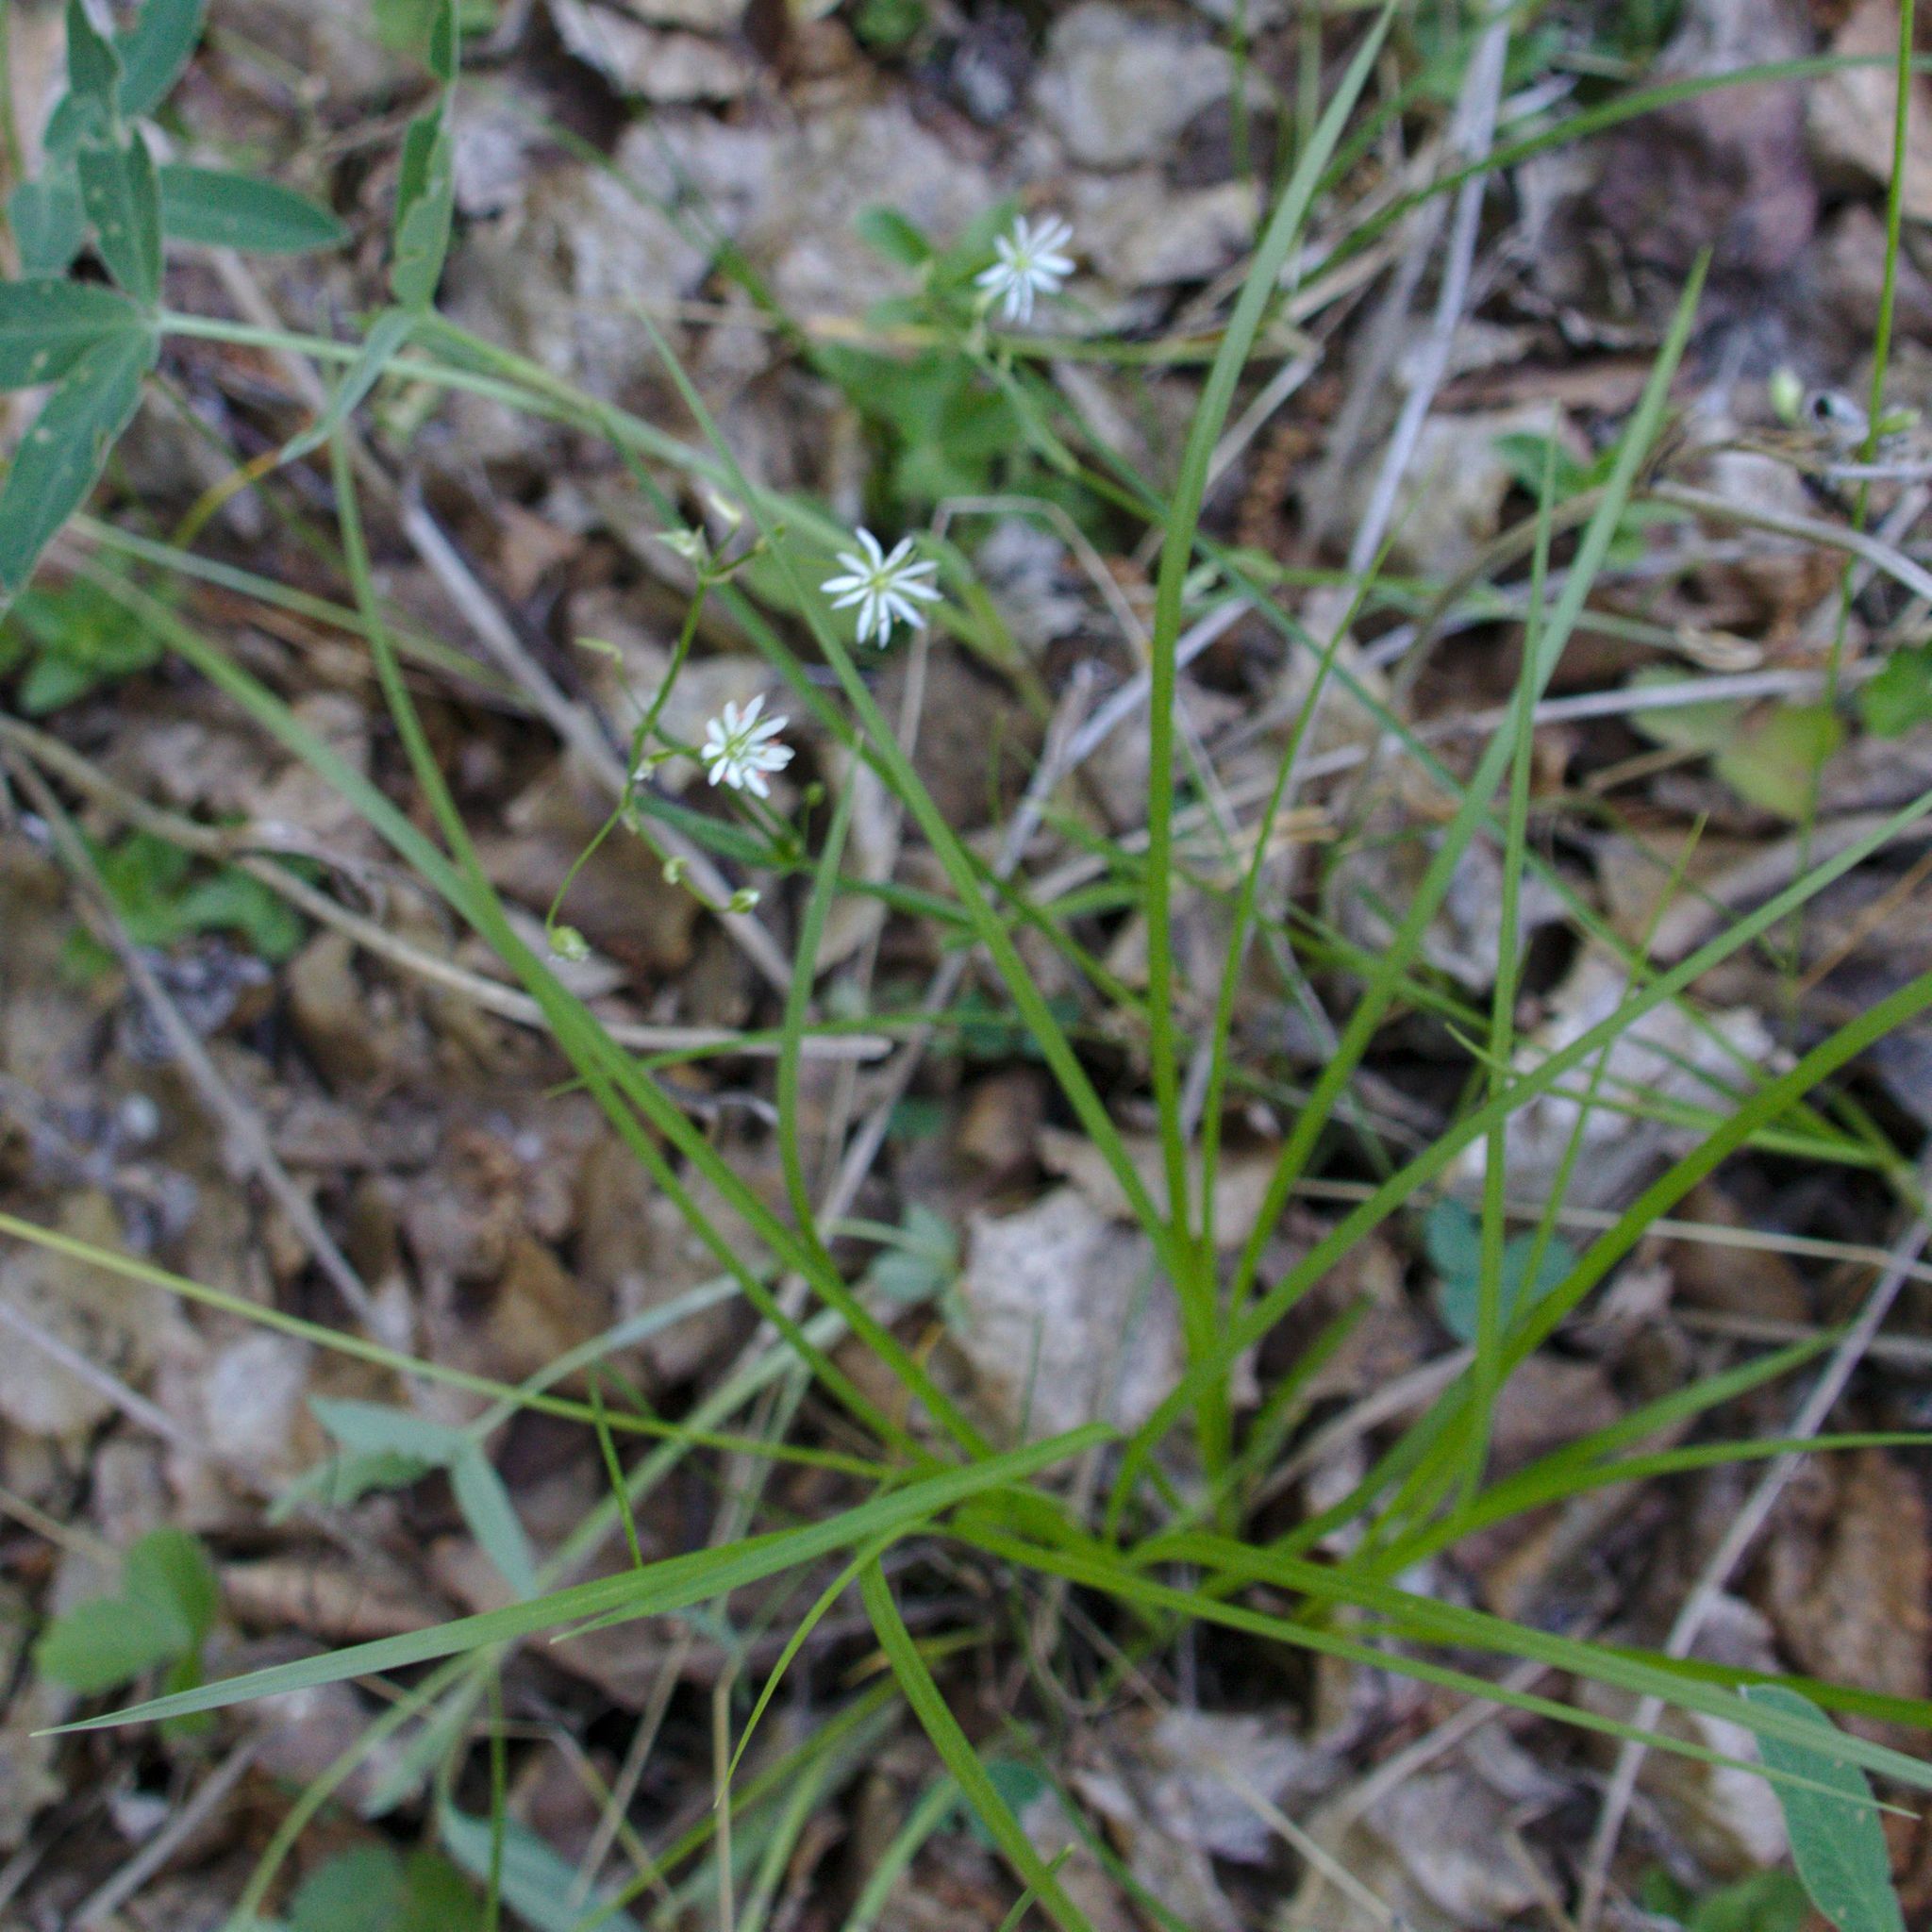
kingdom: Plantae
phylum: Tracheophyta
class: Magnoliopsida
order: Caryophyllales
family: Caryophyllaceae
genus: Stellaria
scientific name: Stellaria graminea
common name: Grass-like starwort
